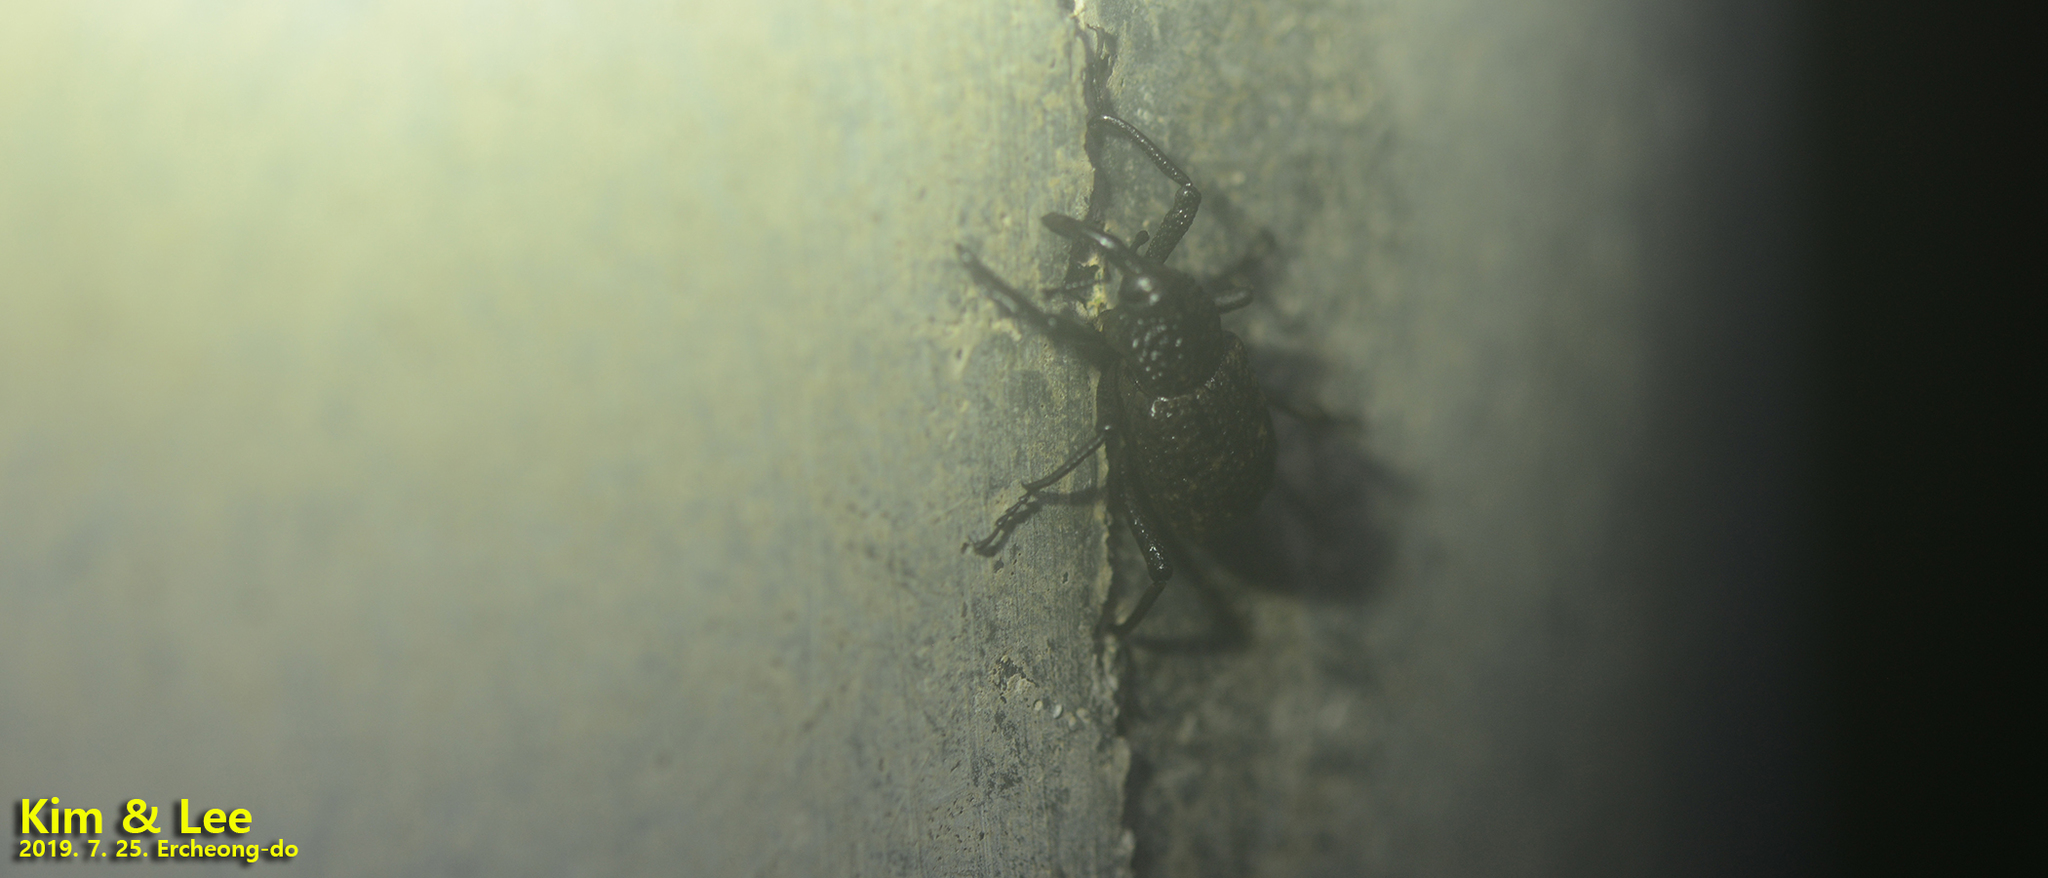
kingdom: Animalia
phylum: Arthropoda
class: Insecta
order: Coleoptera
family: Dryophthoridae
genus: Sipalinus
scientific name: Sipalinus gigas
